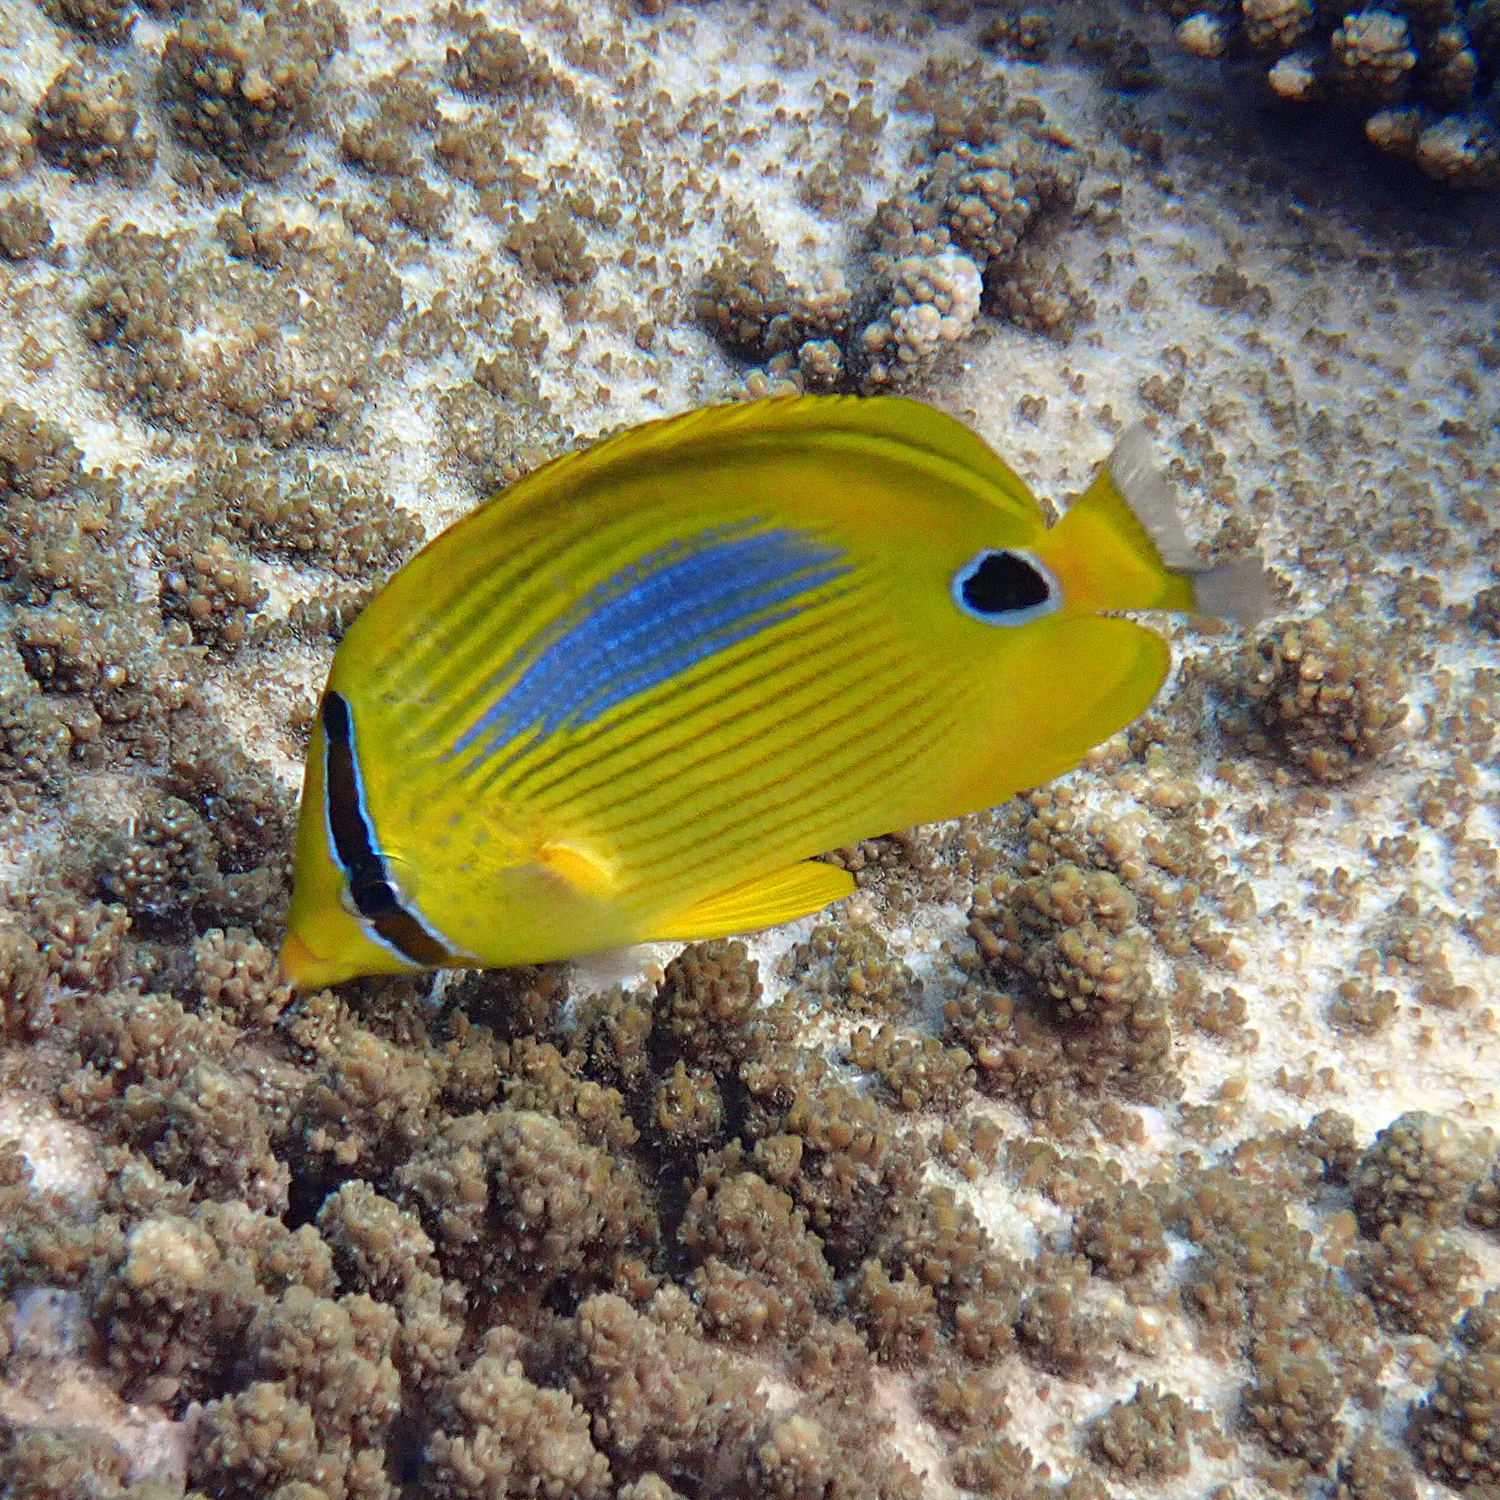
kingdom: Animalia
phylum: Chordata
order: Perciformes
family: Chaetodontidae
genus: Chaetodon
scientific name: Chaetodon plebeius
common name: Bluespot butterflyfish
